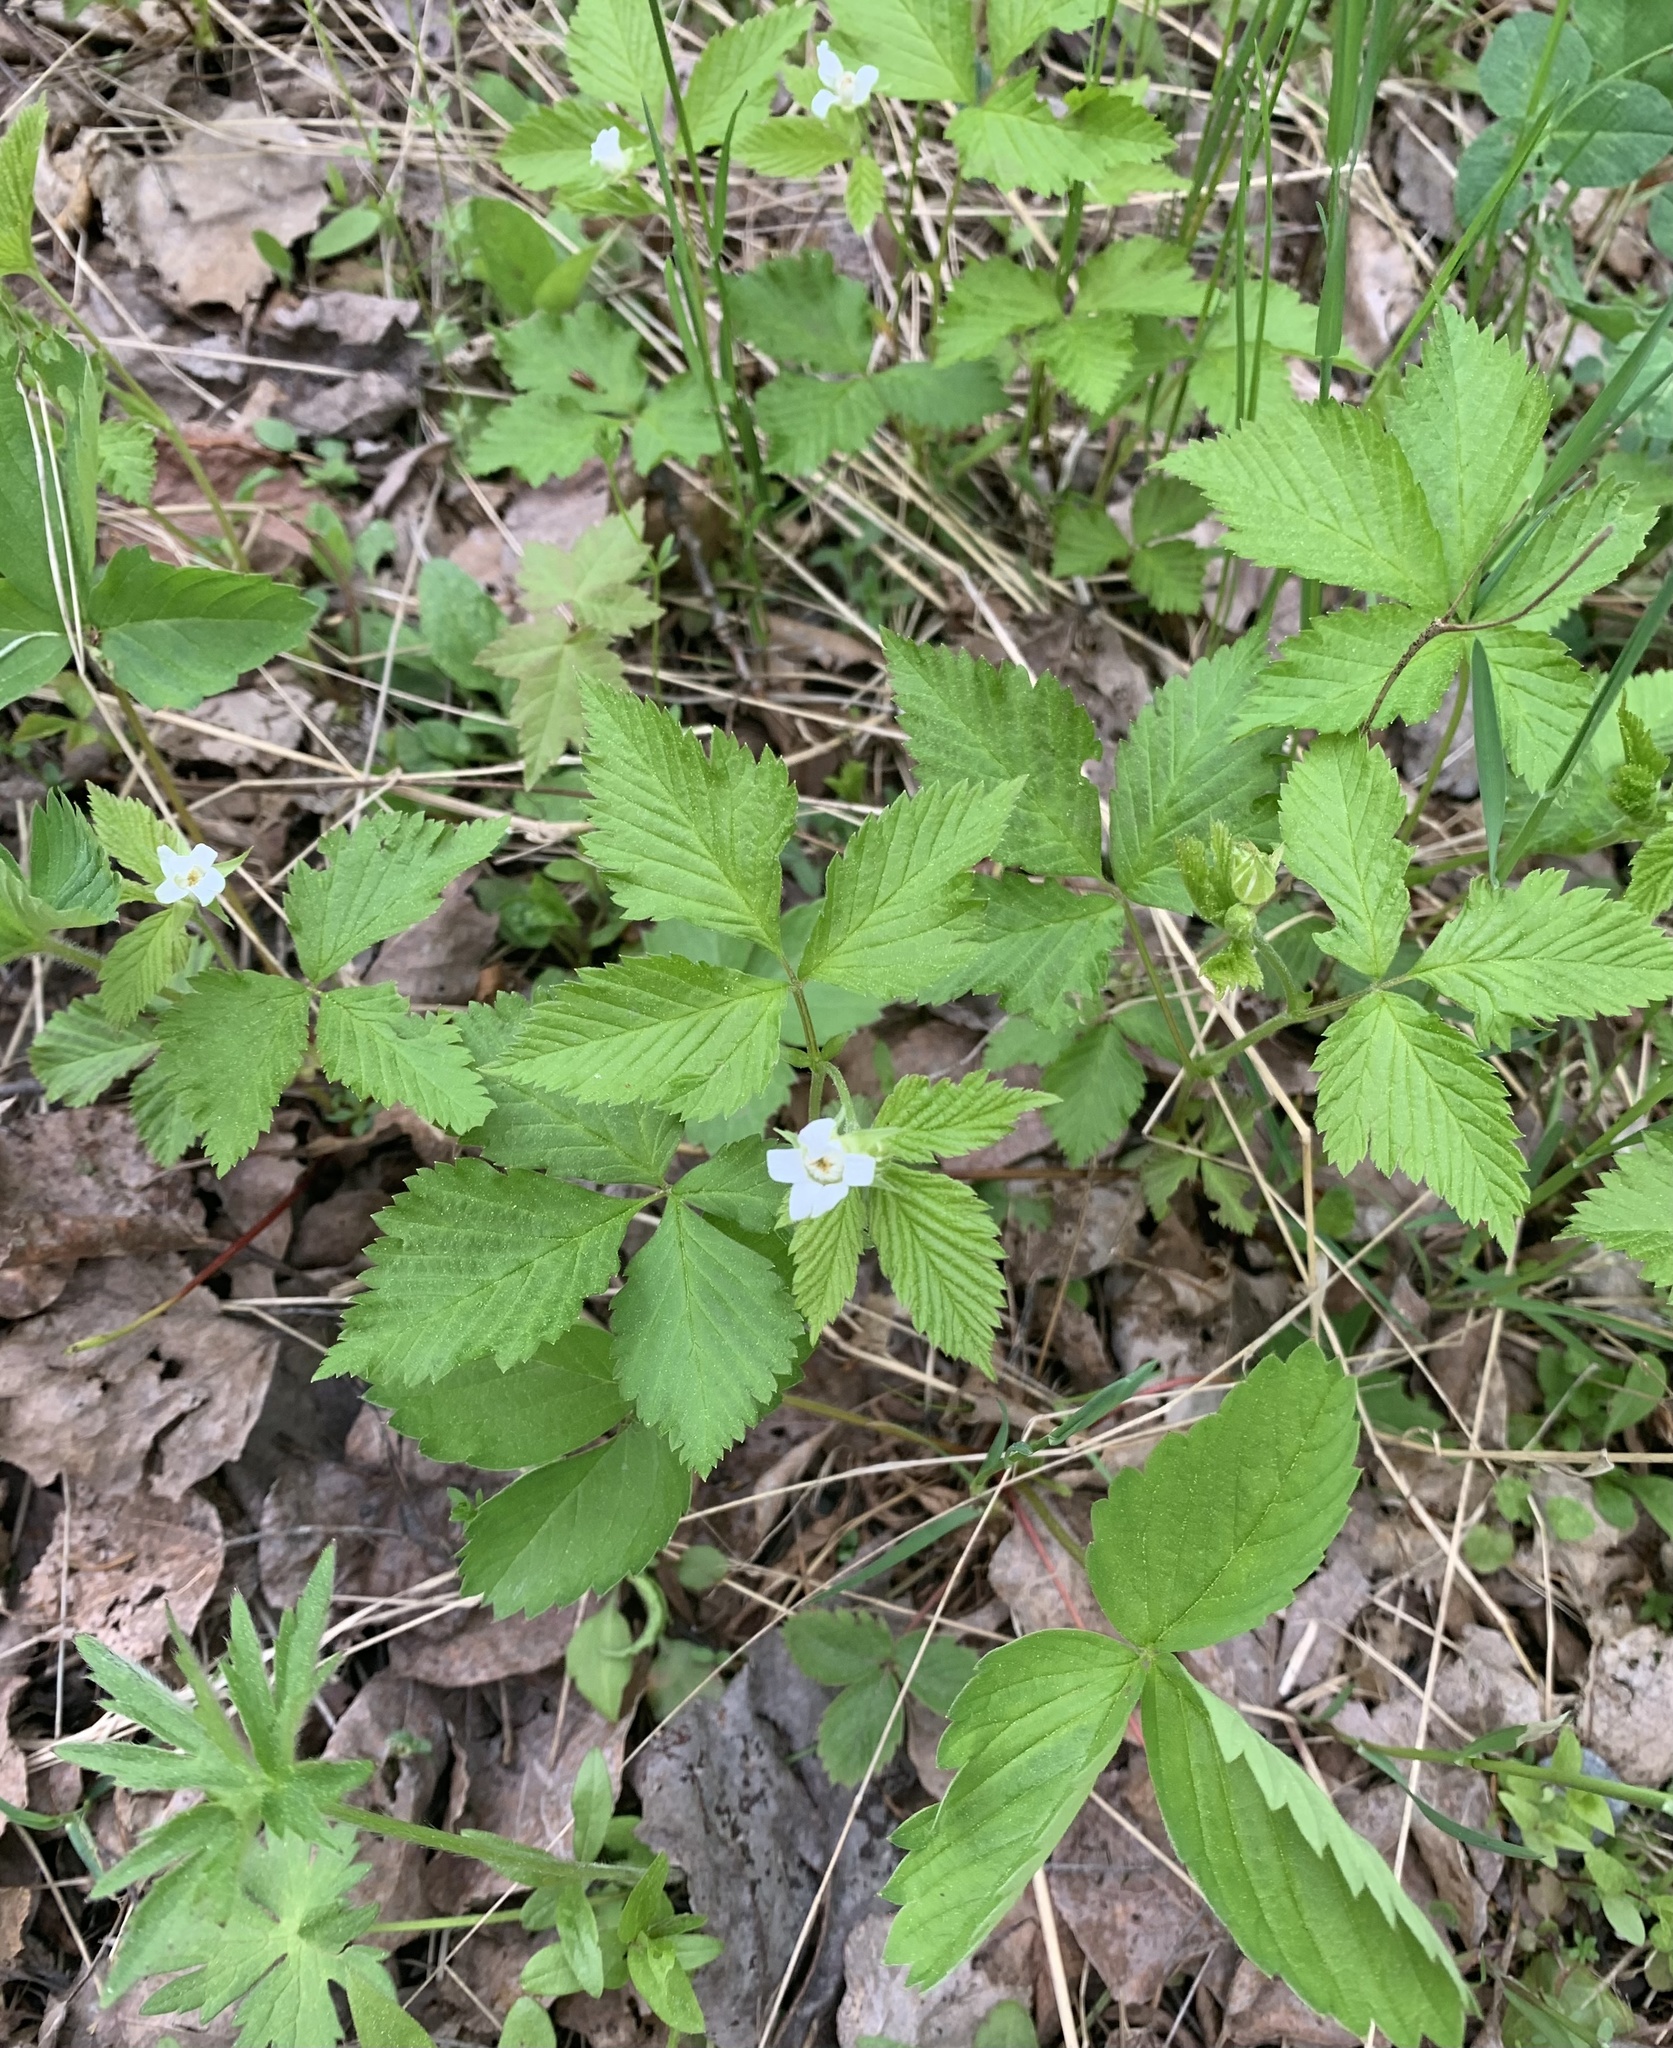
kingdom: Plantae
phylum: Tracheophyta
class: Magnoliopsida
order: Rosales
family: Rosaceae
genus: Rubus
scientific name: Rubus pubescens
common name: Dwarf raspberry
